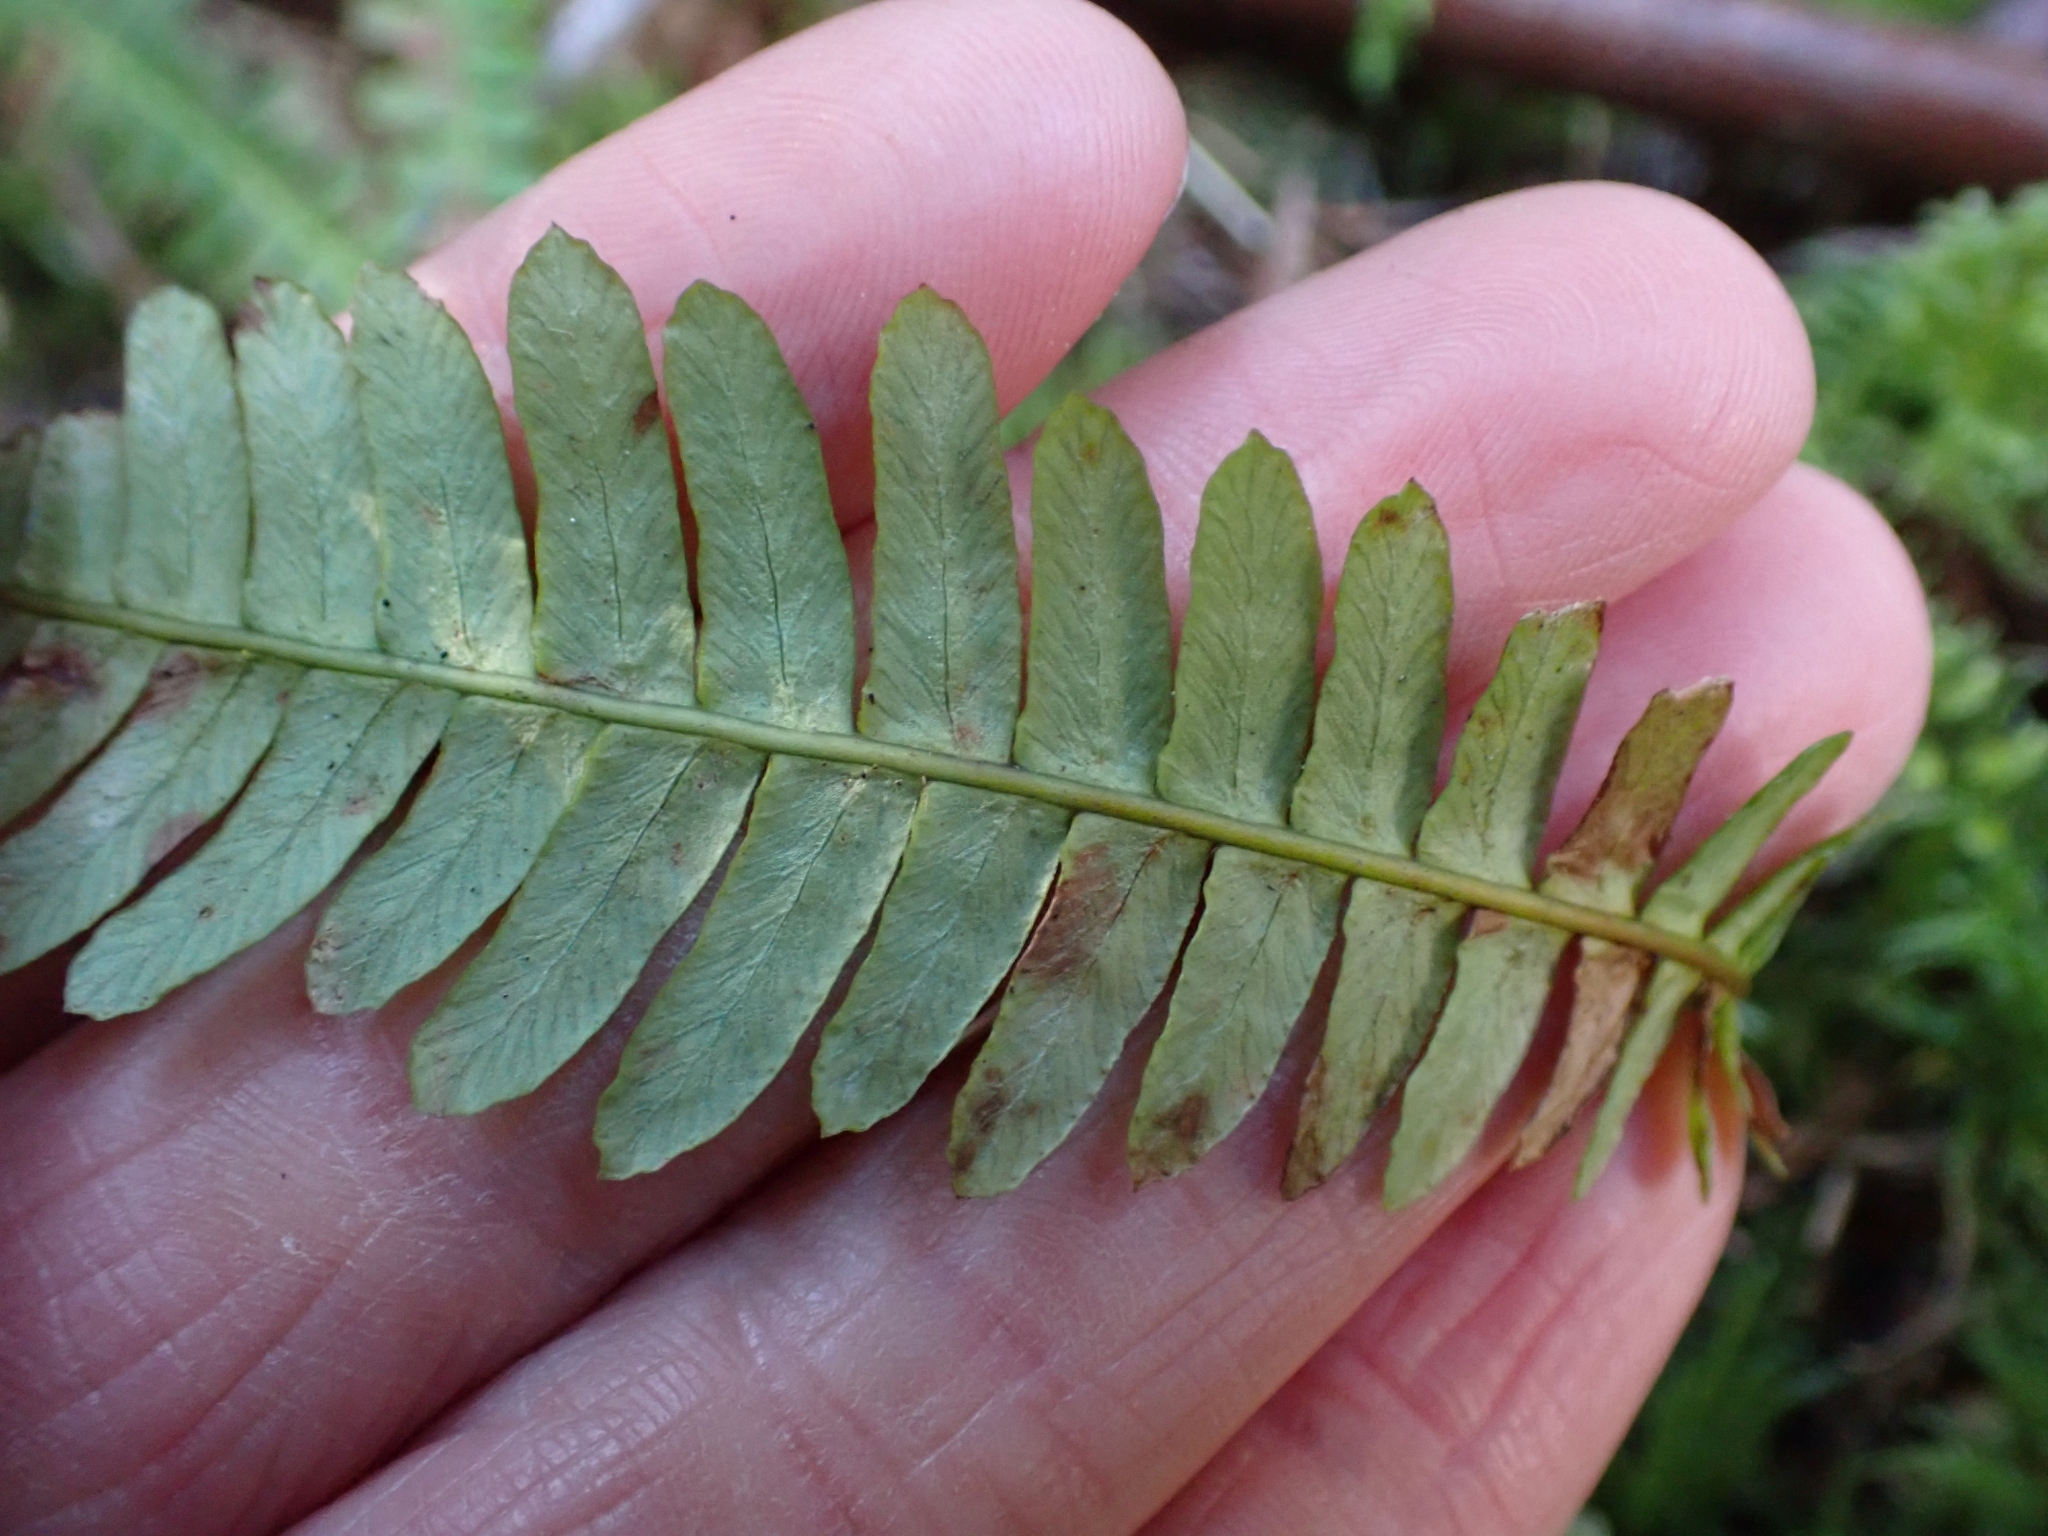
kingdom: Plantae
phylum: Tracheophyta
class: Polypodiopsida
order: Polypodiales
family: Blechnaceae
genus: Struthiopteris
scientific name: Struthiopteris spicant
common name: Deer fern
